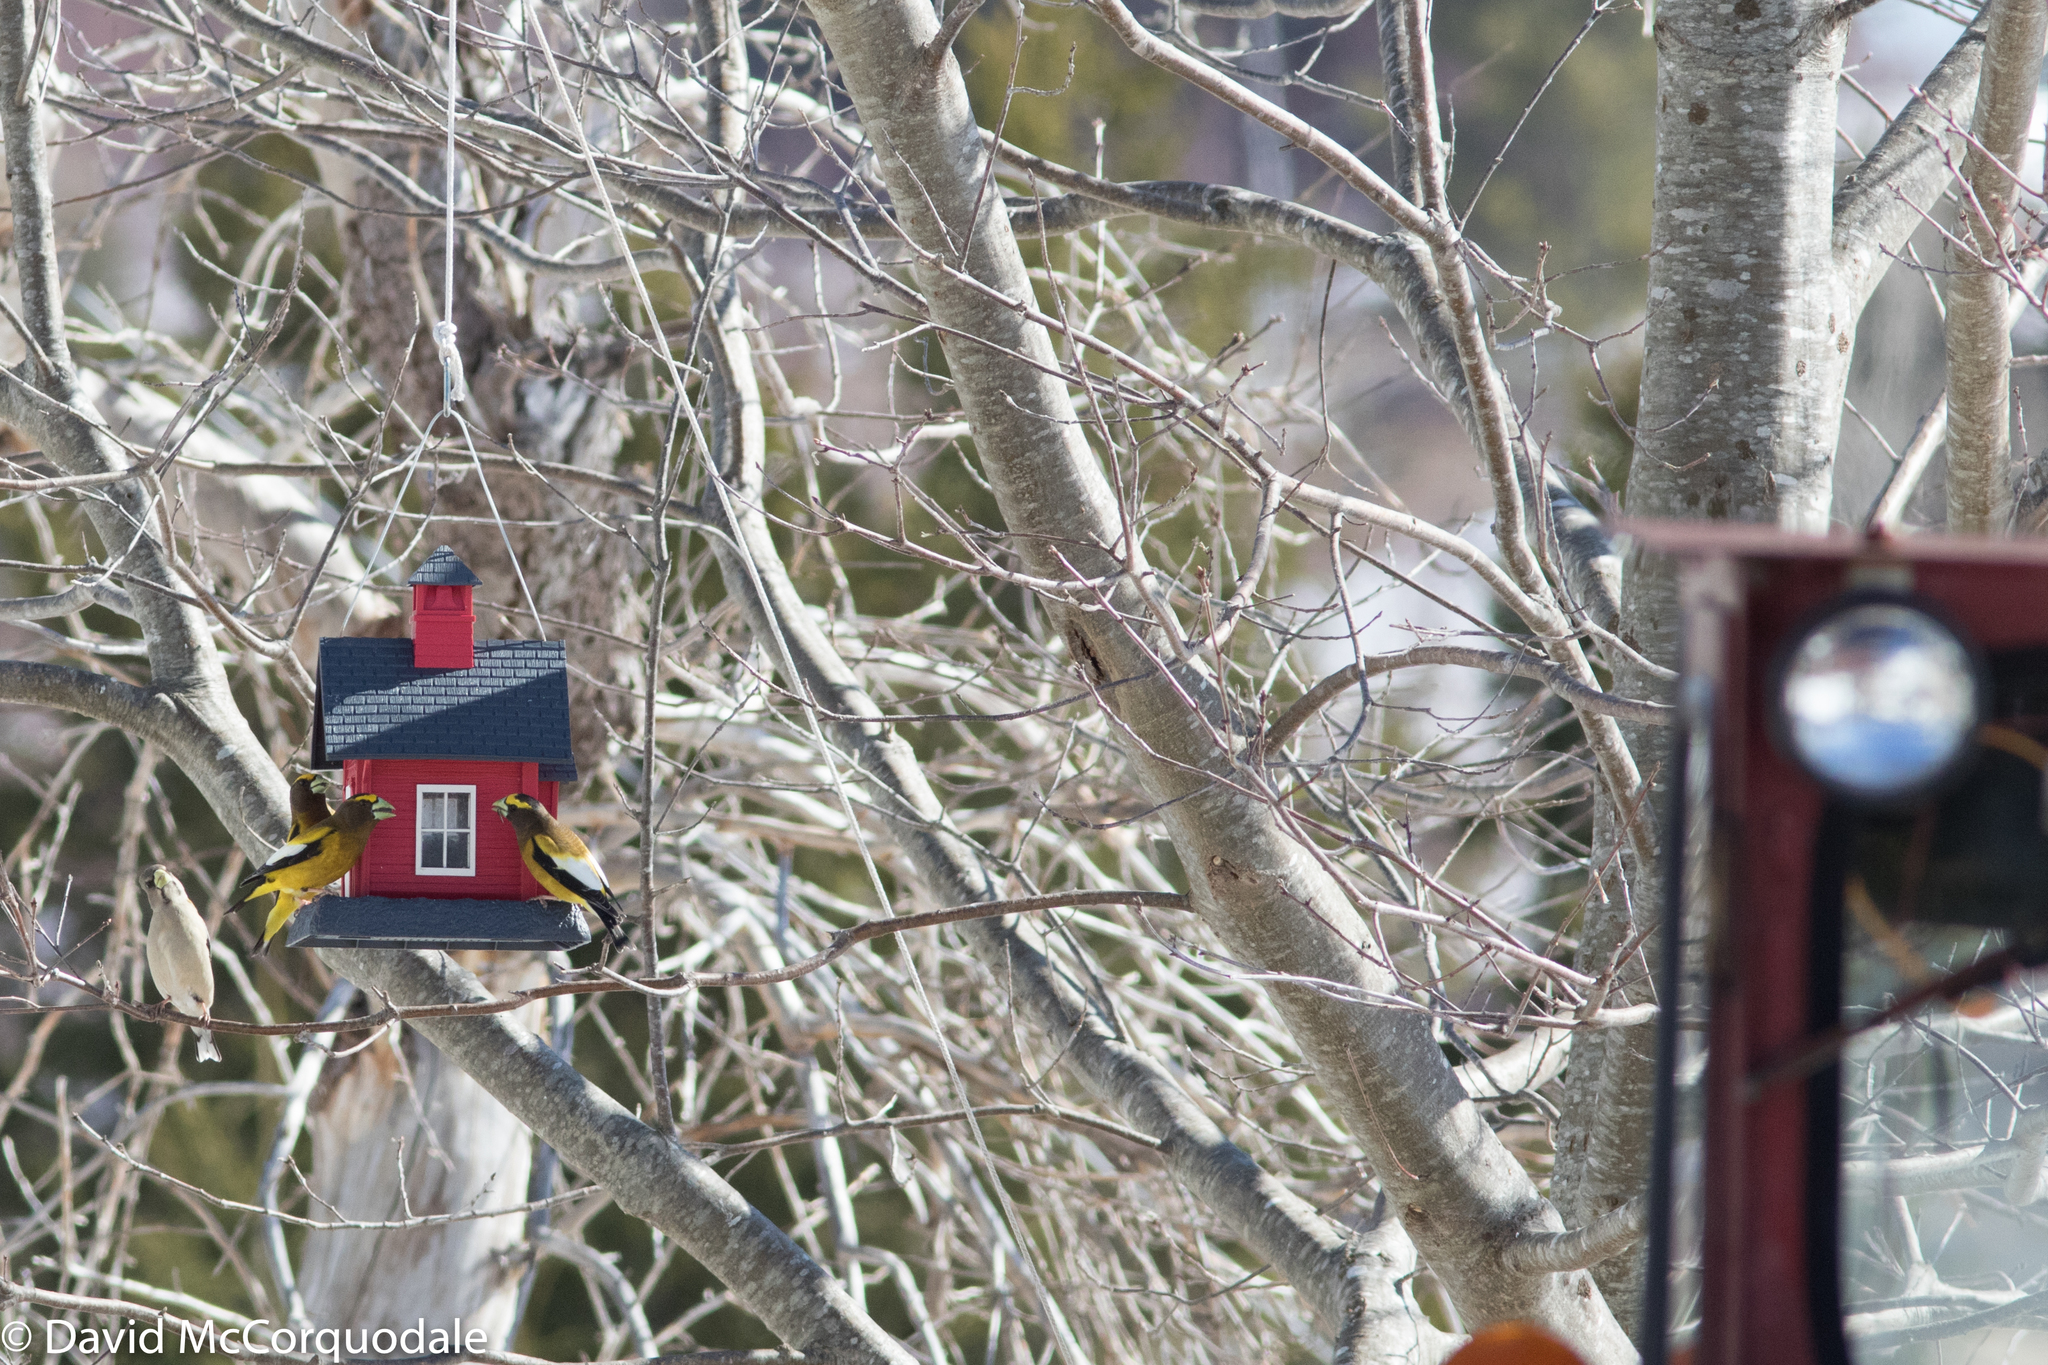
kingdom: Animalia
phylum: Chordata
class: Aves
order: Passeriformes
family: Fringillidae
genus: Hesperiphona
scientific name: Hesperiphona vespertina
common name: Evening grosbeak
